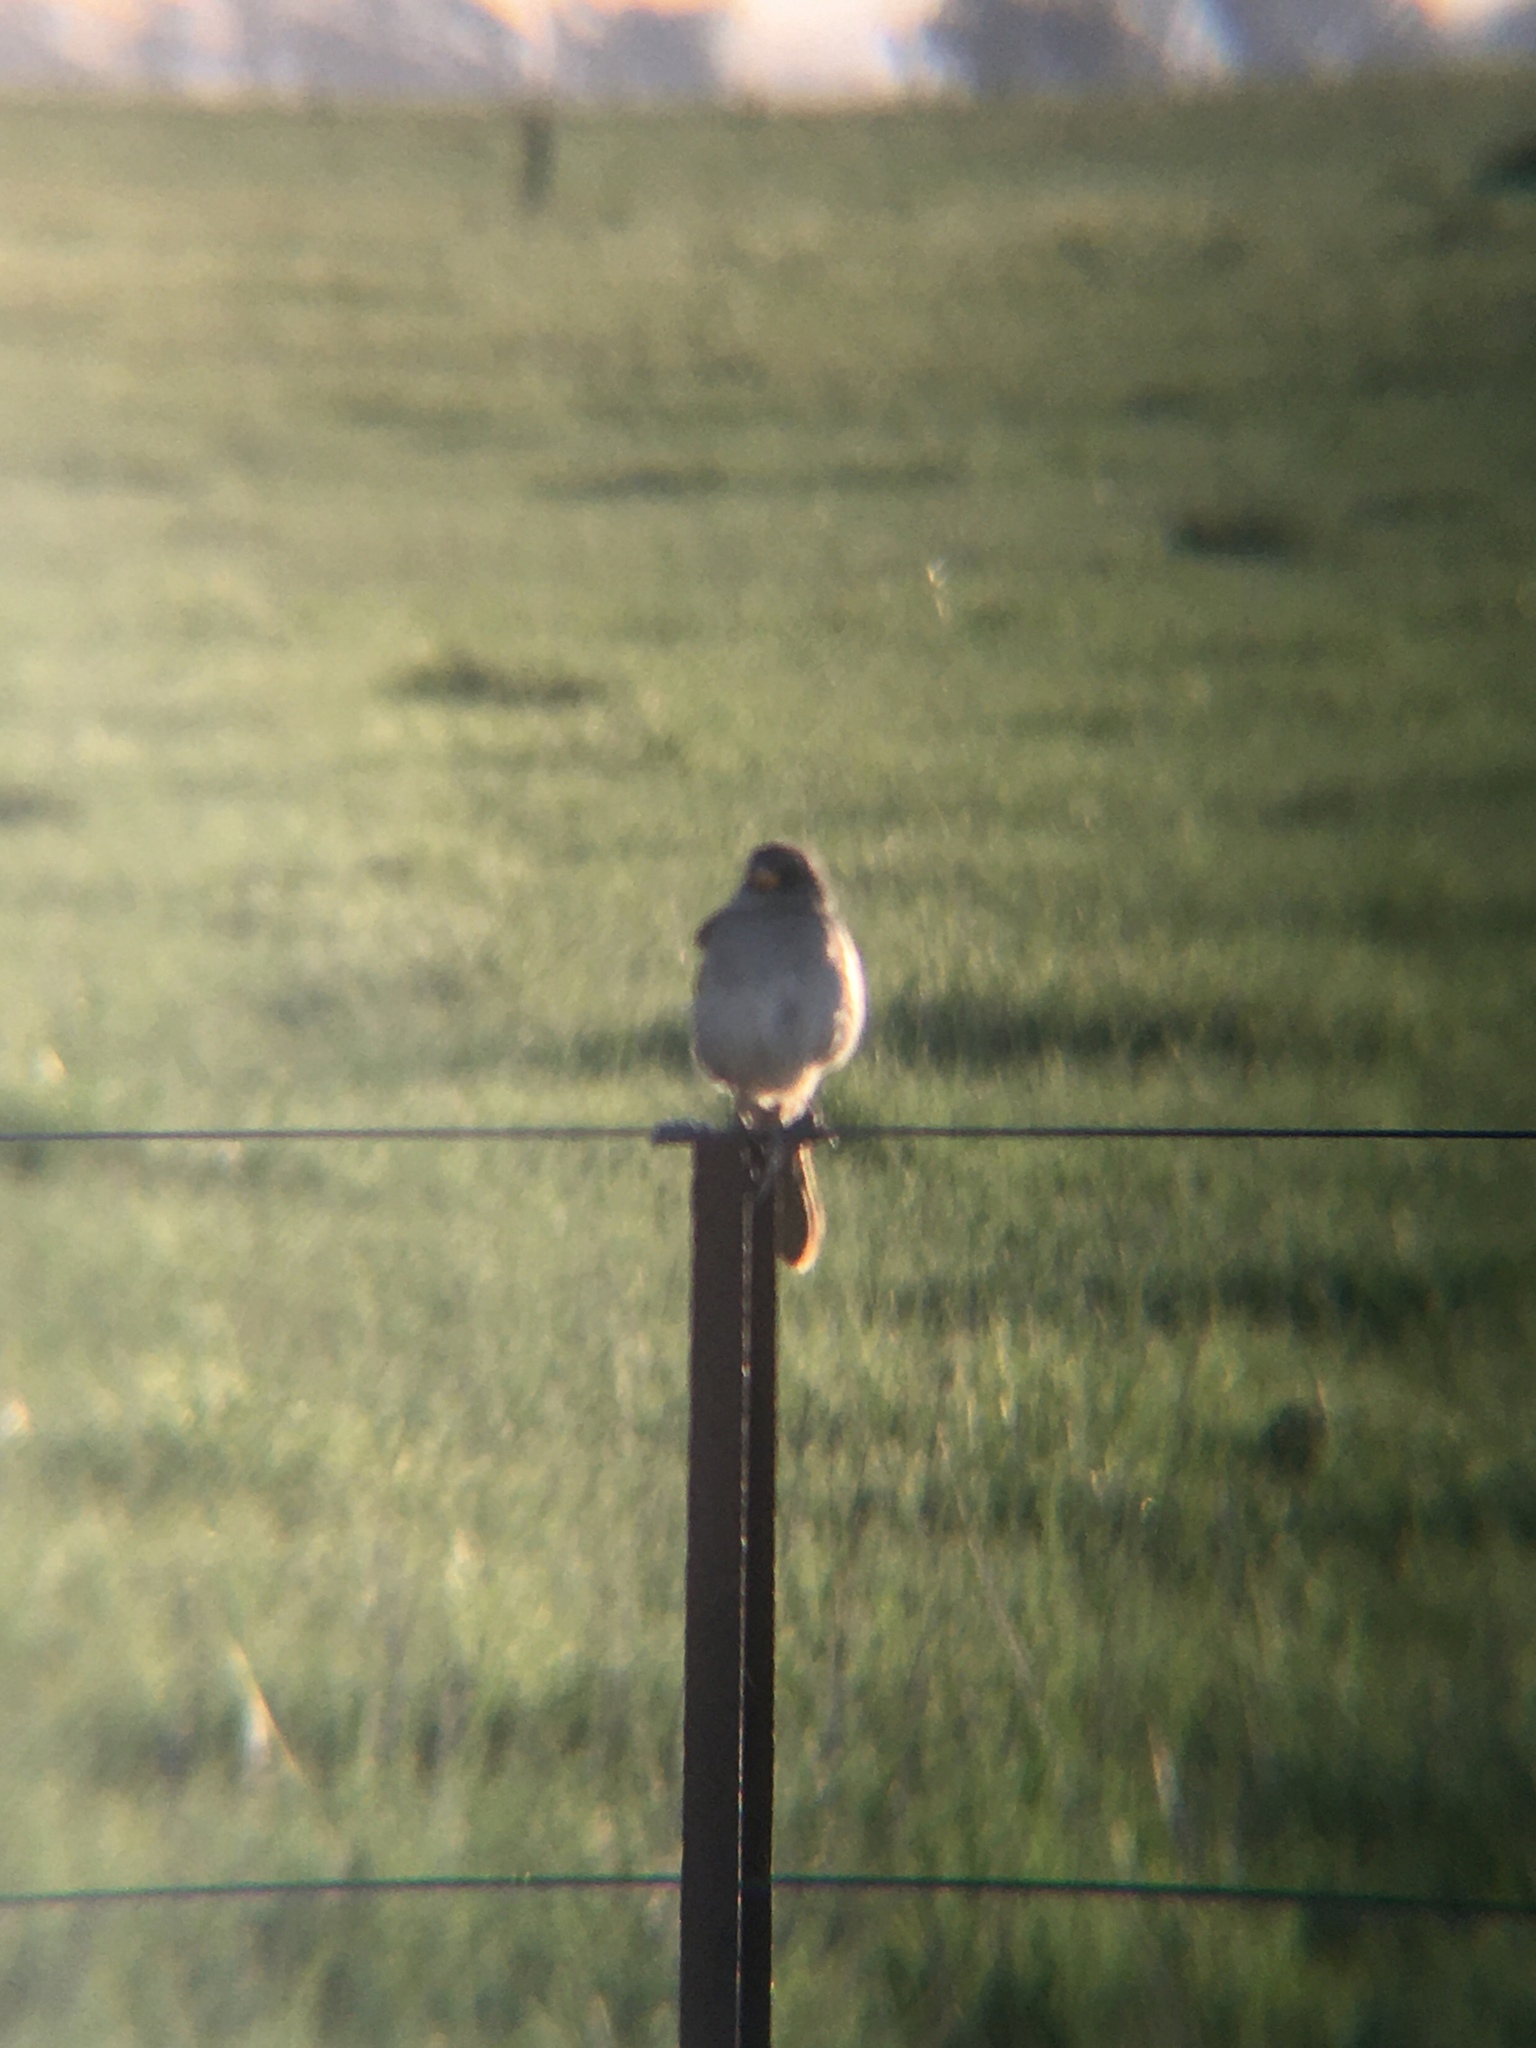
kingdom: Animalia
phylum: Chordata
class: Aves
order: Passeriformes
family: Thraupidae
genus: Embernagra
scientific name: Embernagra platensis
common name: Pampa finch
